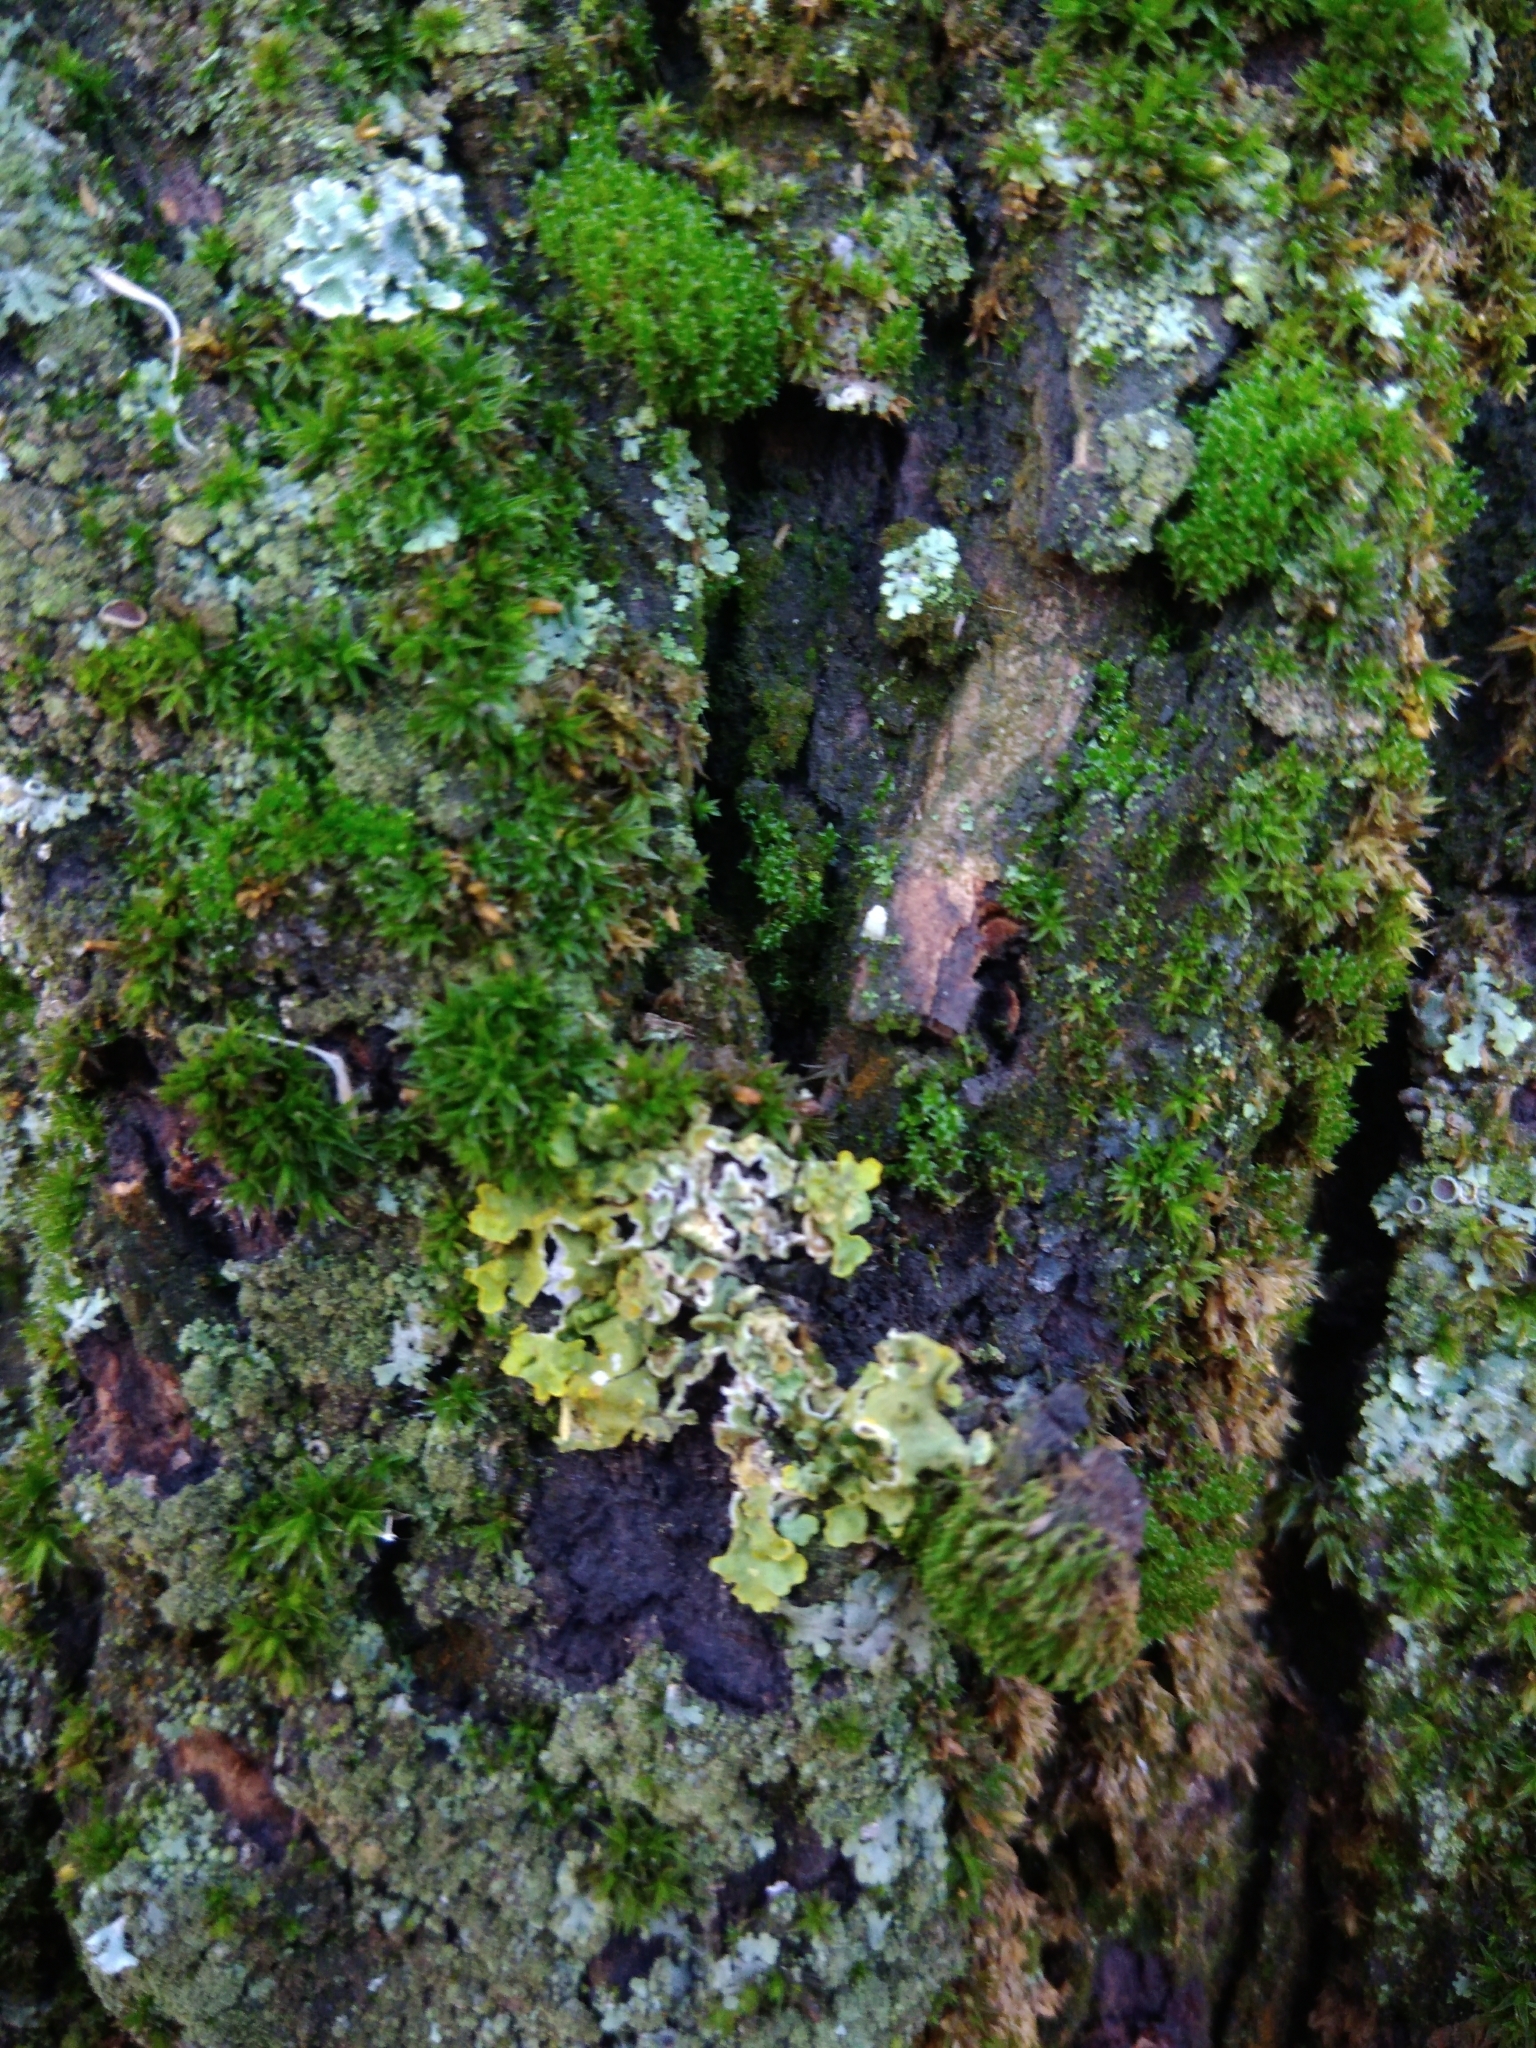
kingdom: Fungi
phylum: Ascomycota
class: Lecanoromycetes
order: Teloschistales
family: Teloschistaceae
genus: Xanthoria
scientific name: Xanthoria parietina
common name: Common orange lichen
